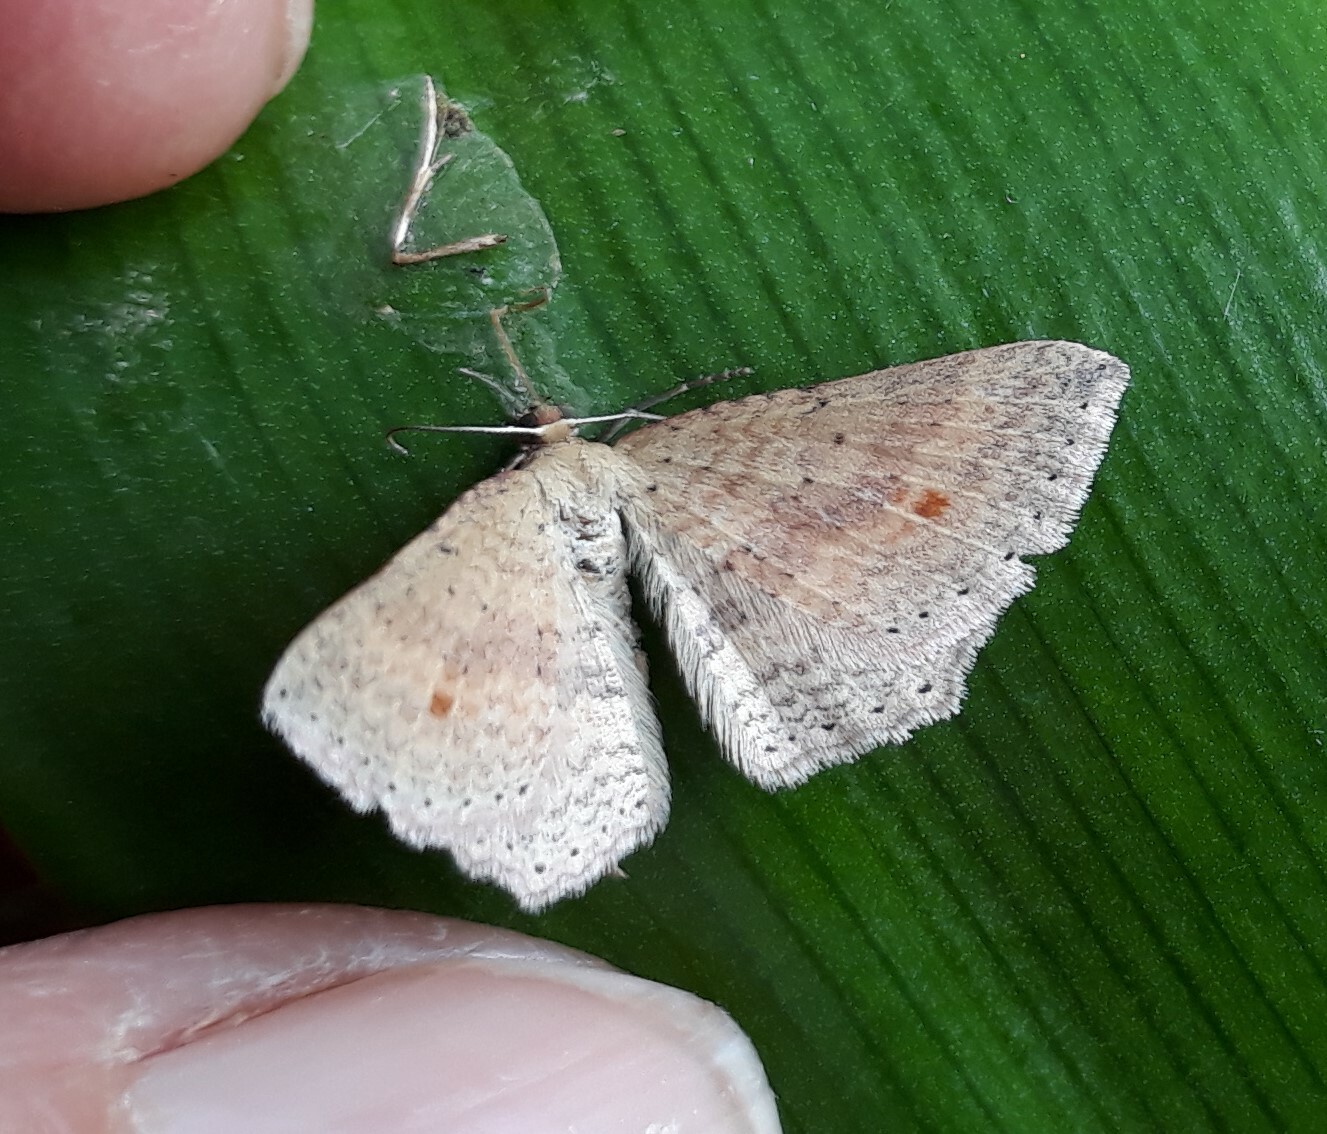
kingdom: Animalia
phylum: Arthropoda
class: Insecta
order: Lepidoptera
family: Geometridae
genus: Epicyme
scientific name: Epicyme rubropunctaria
